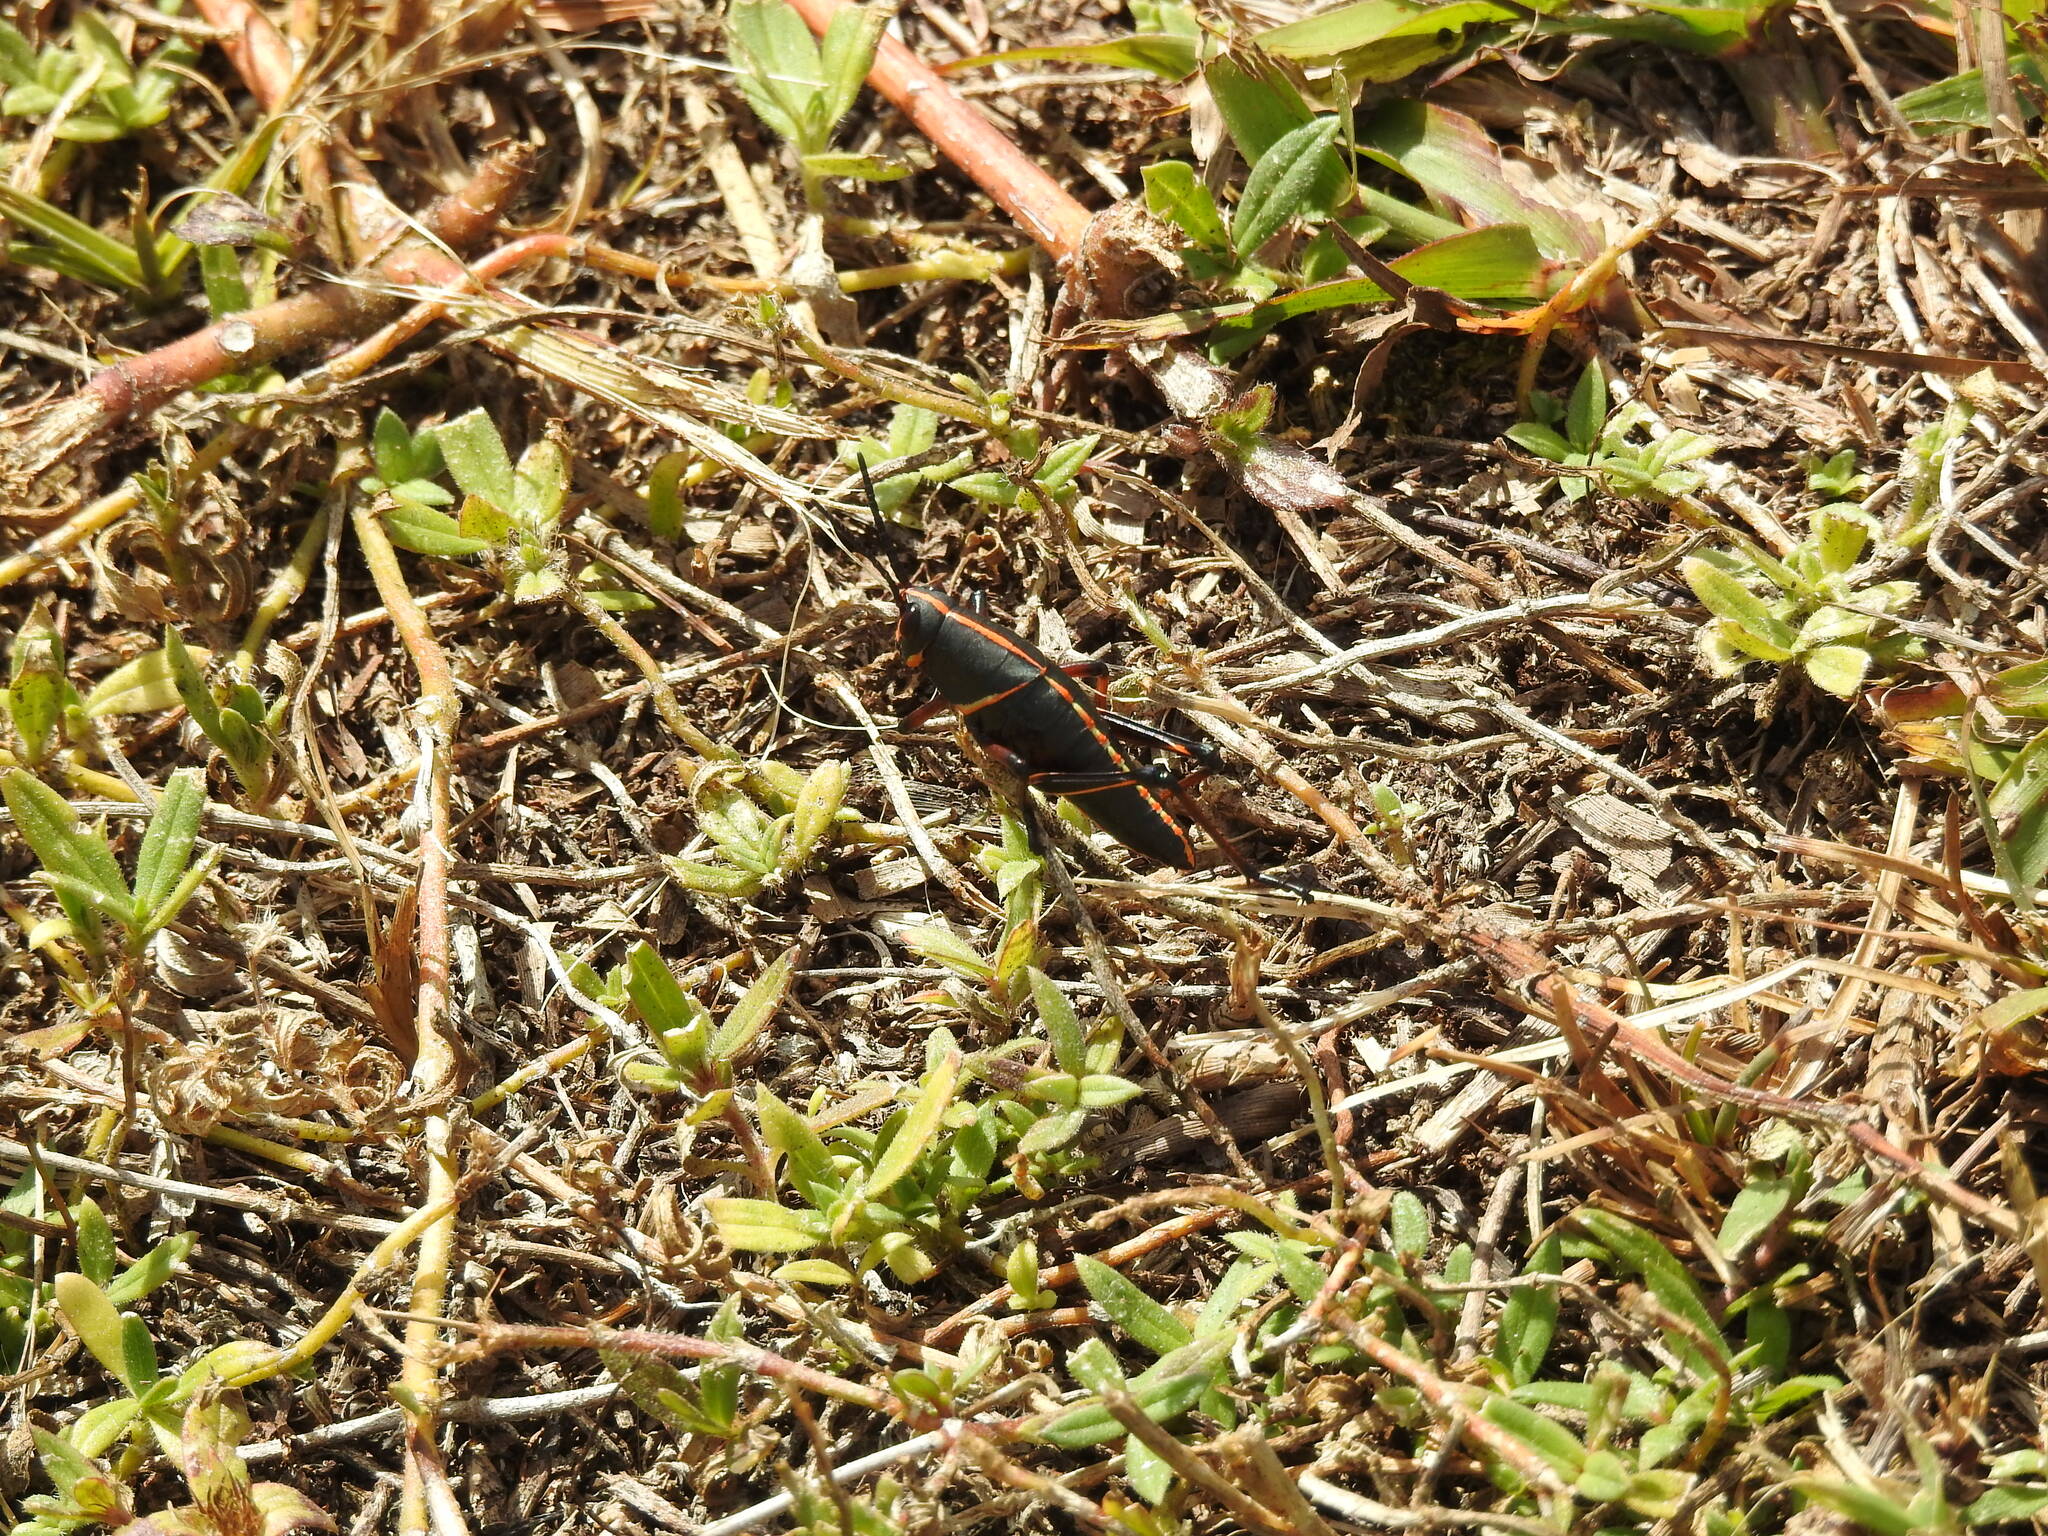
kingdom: Animalia
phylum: Arthropoda
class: Insecta
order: Orthoptera
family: Romaleidae
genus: Romalea
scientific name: Romalea microptera
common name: Eastern lubber grasshopper
